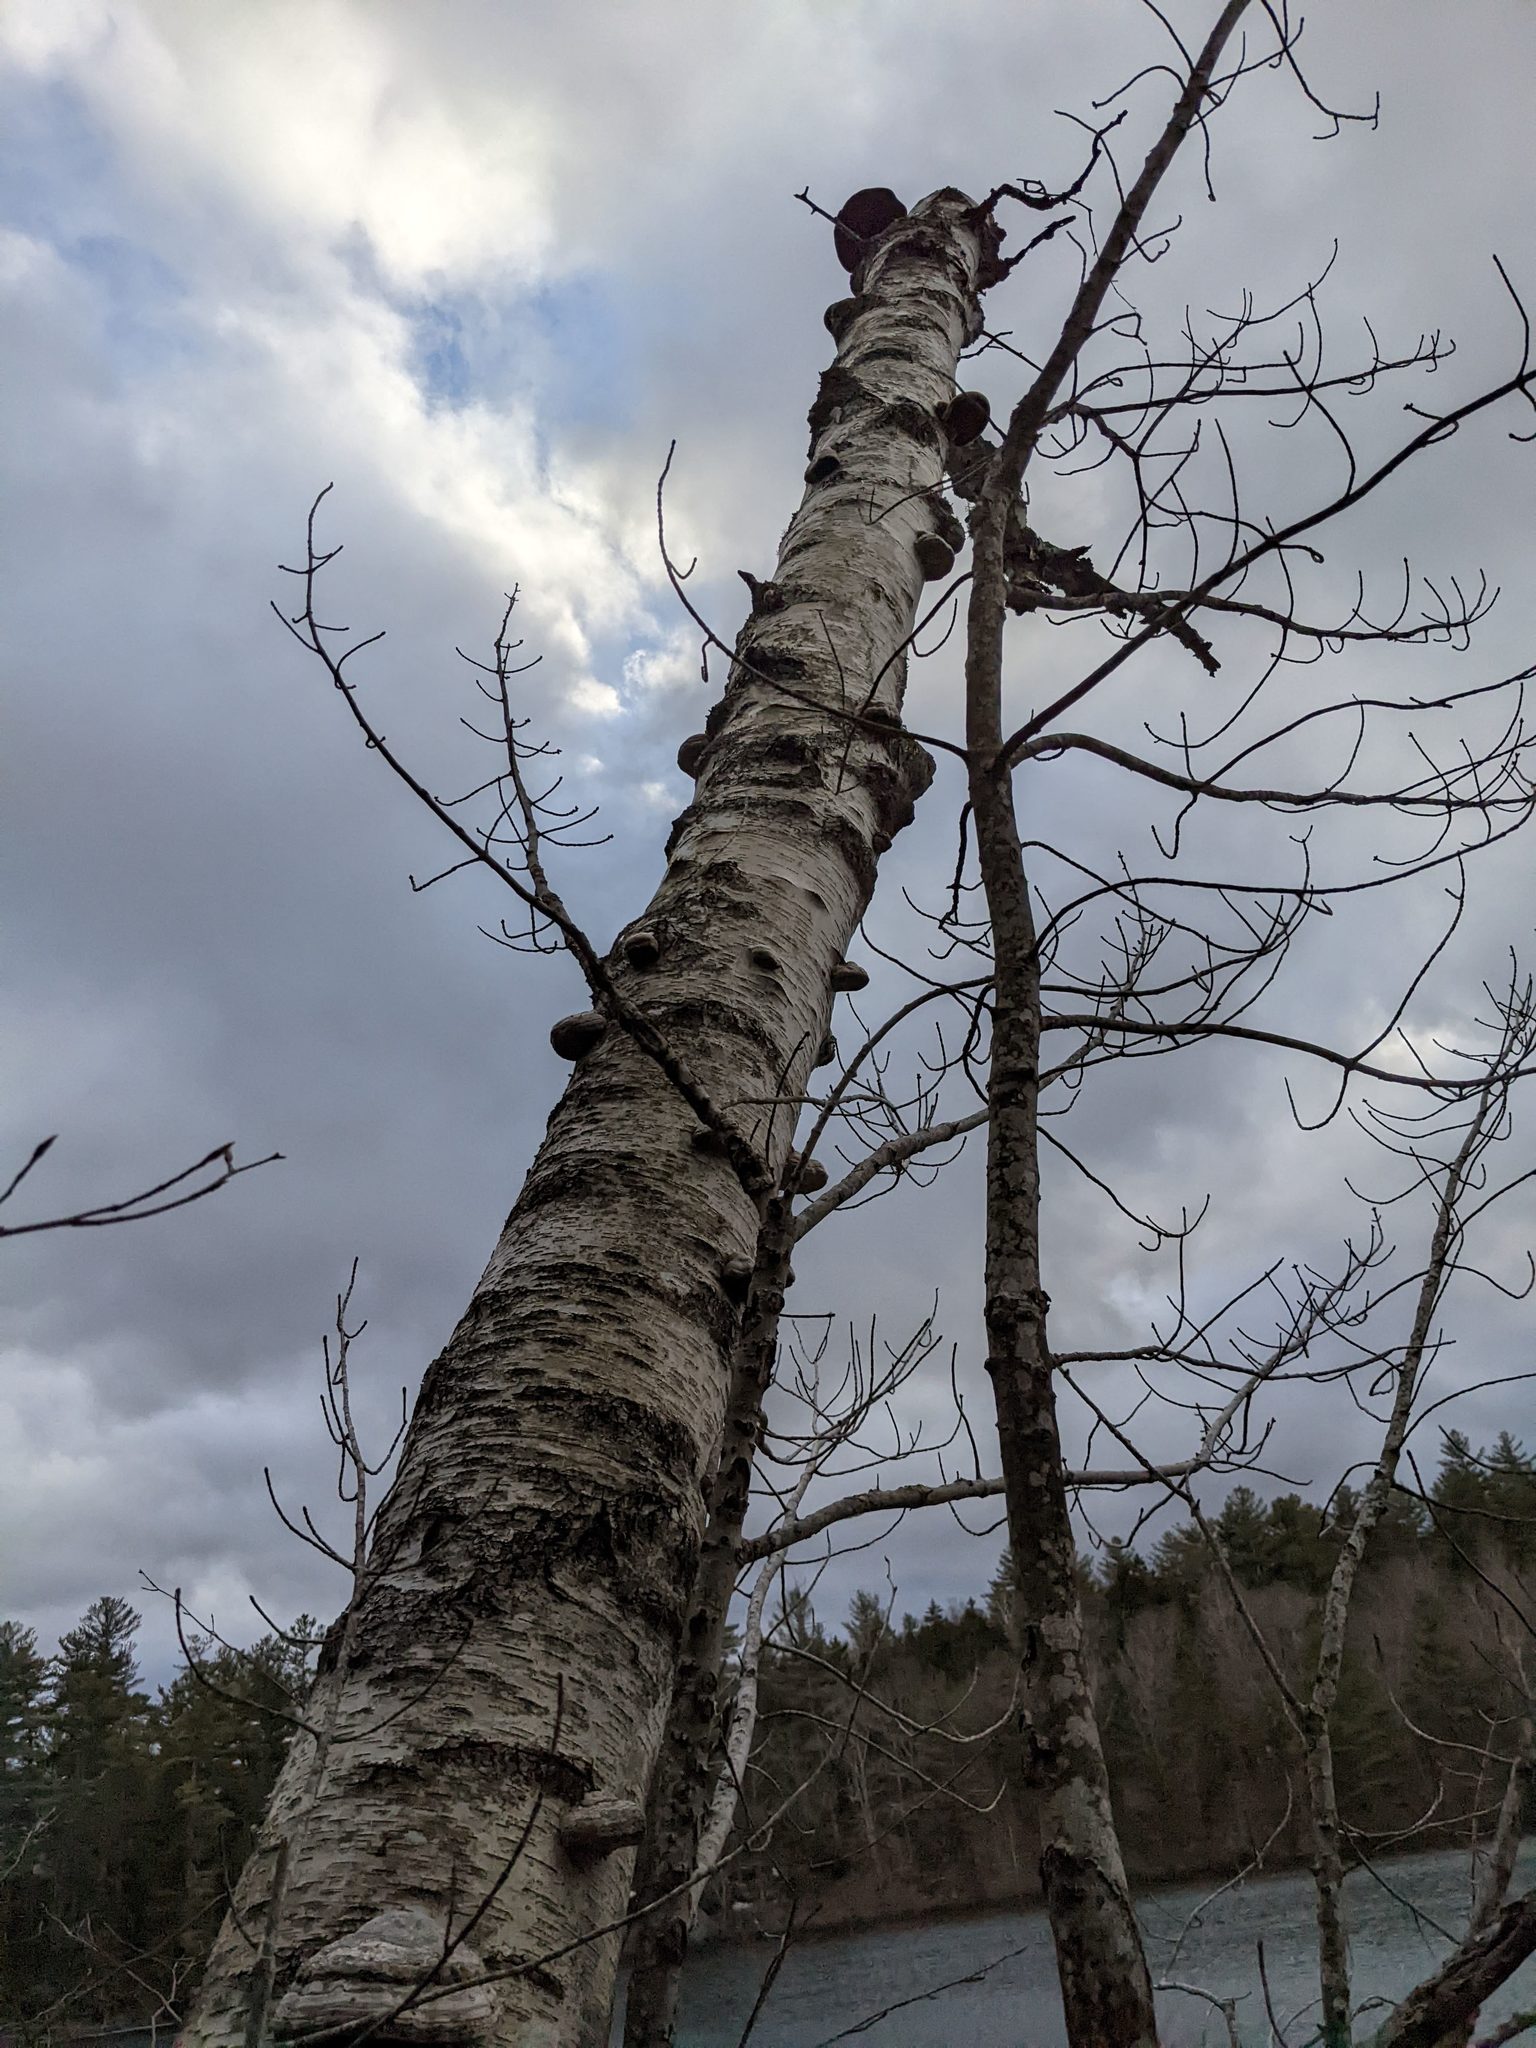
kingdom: Plantae
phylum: Tracheophyta
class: Magnoliopsida
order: Fagales
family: Betulaceae
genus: Betula
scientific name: Betula papyrifera
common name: Paper birch
